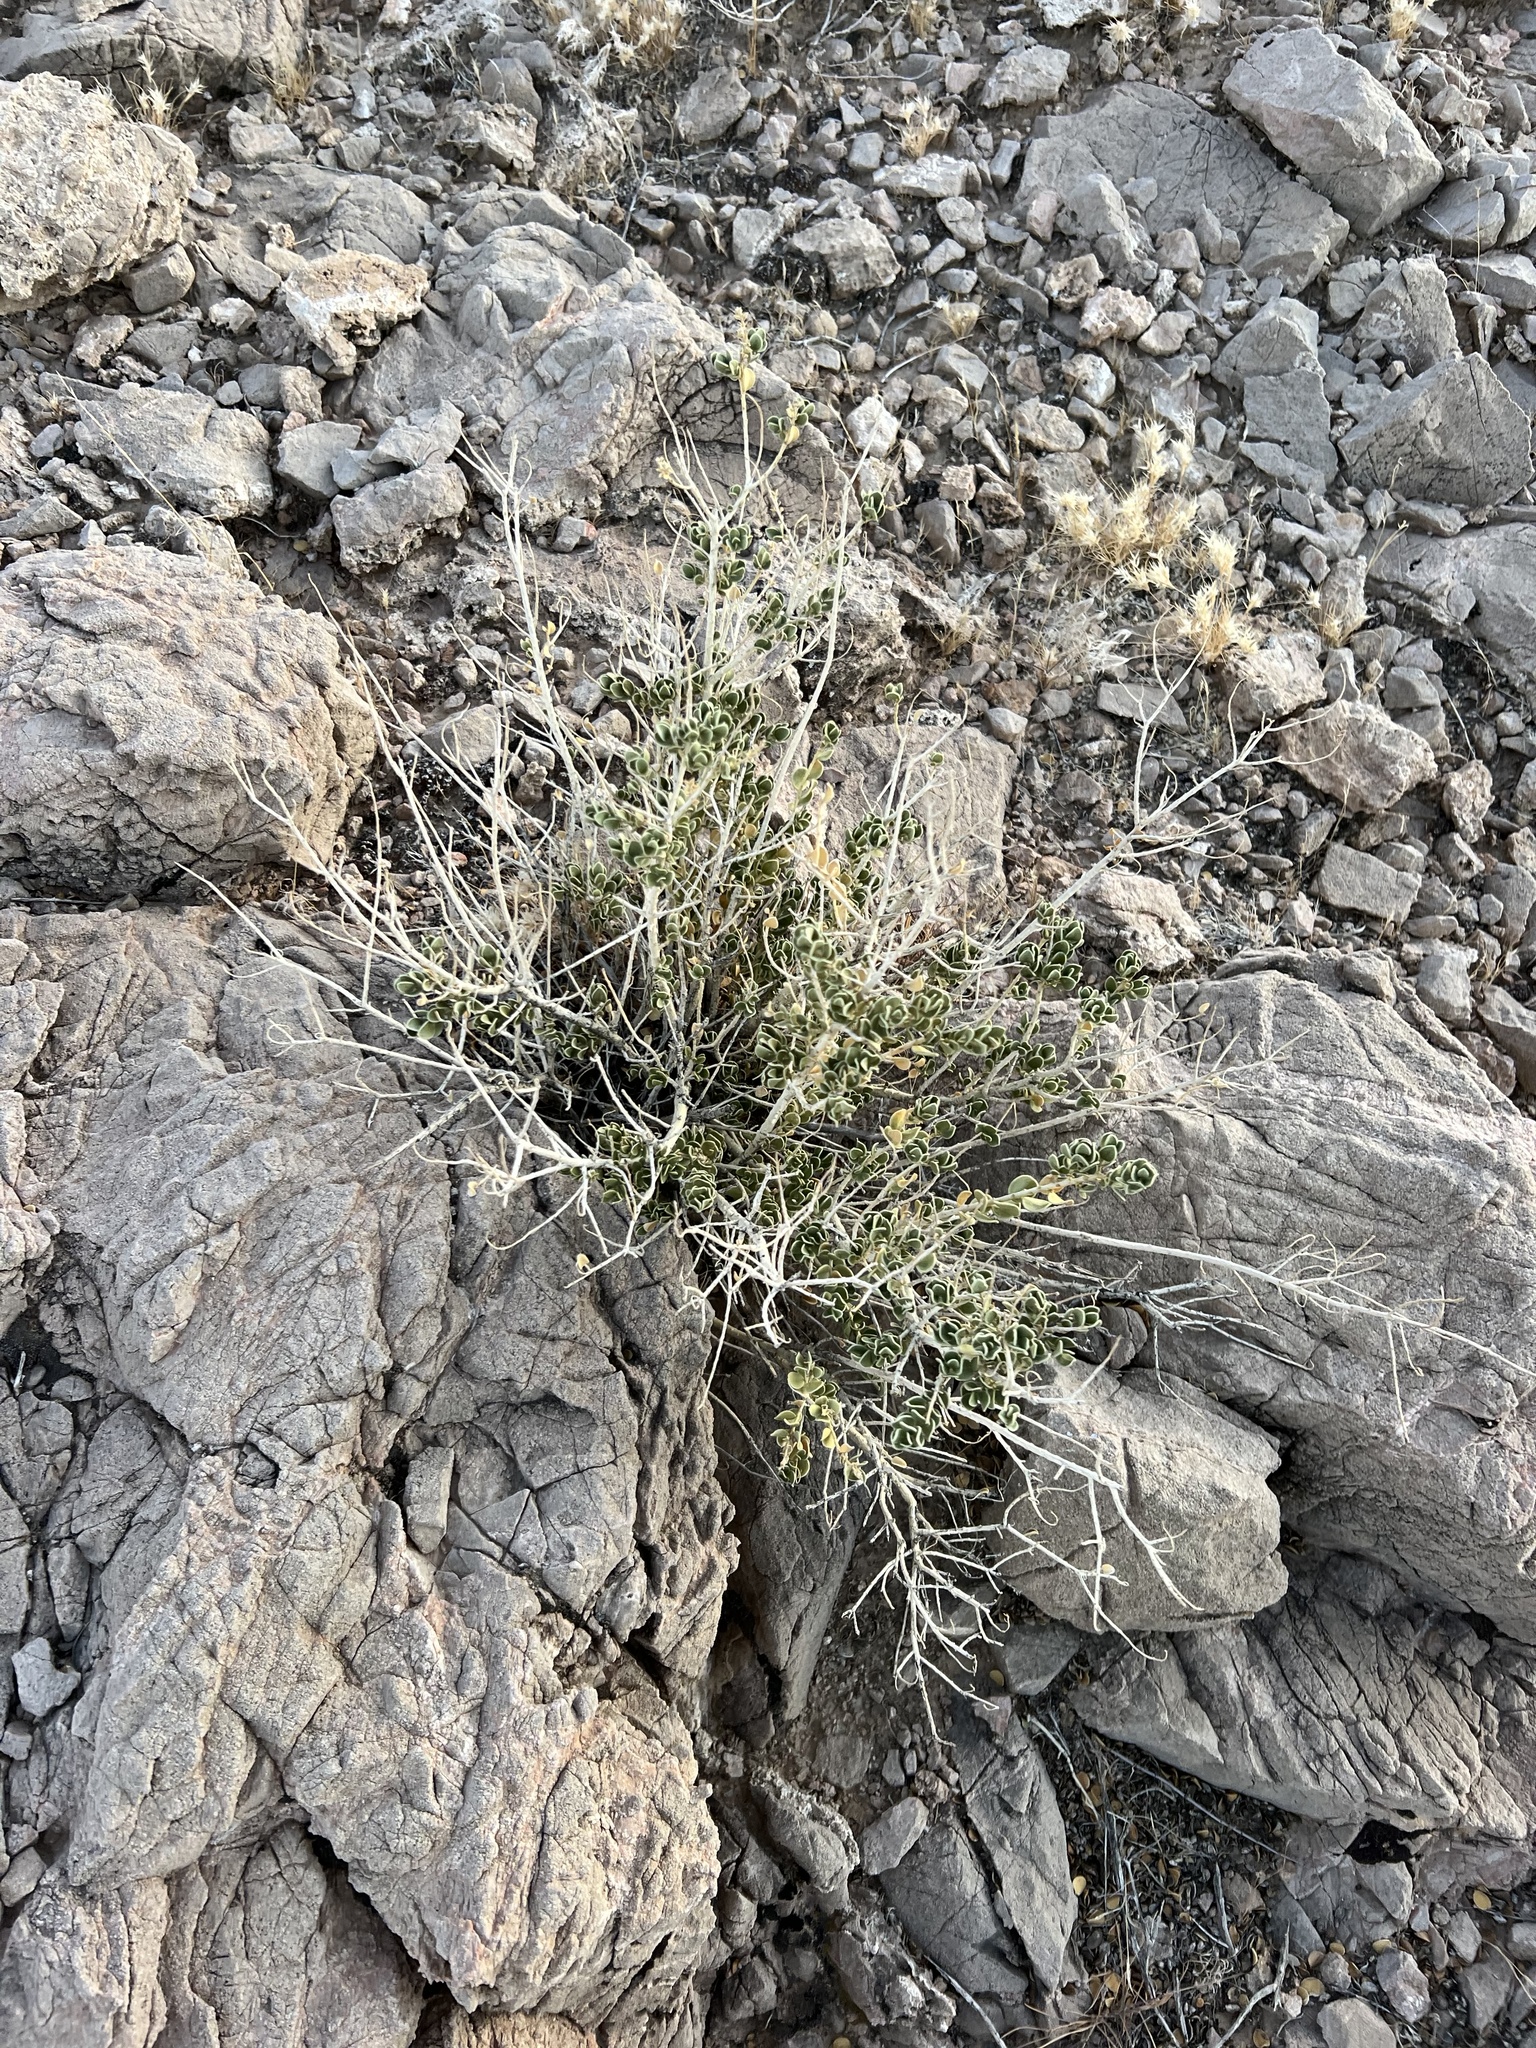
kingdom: Plantae
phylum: Tracheophyta
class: Magnoliopsida
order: Celastrales
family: Celastraceae
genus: Mortonia
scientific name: Mortonia utahensis
